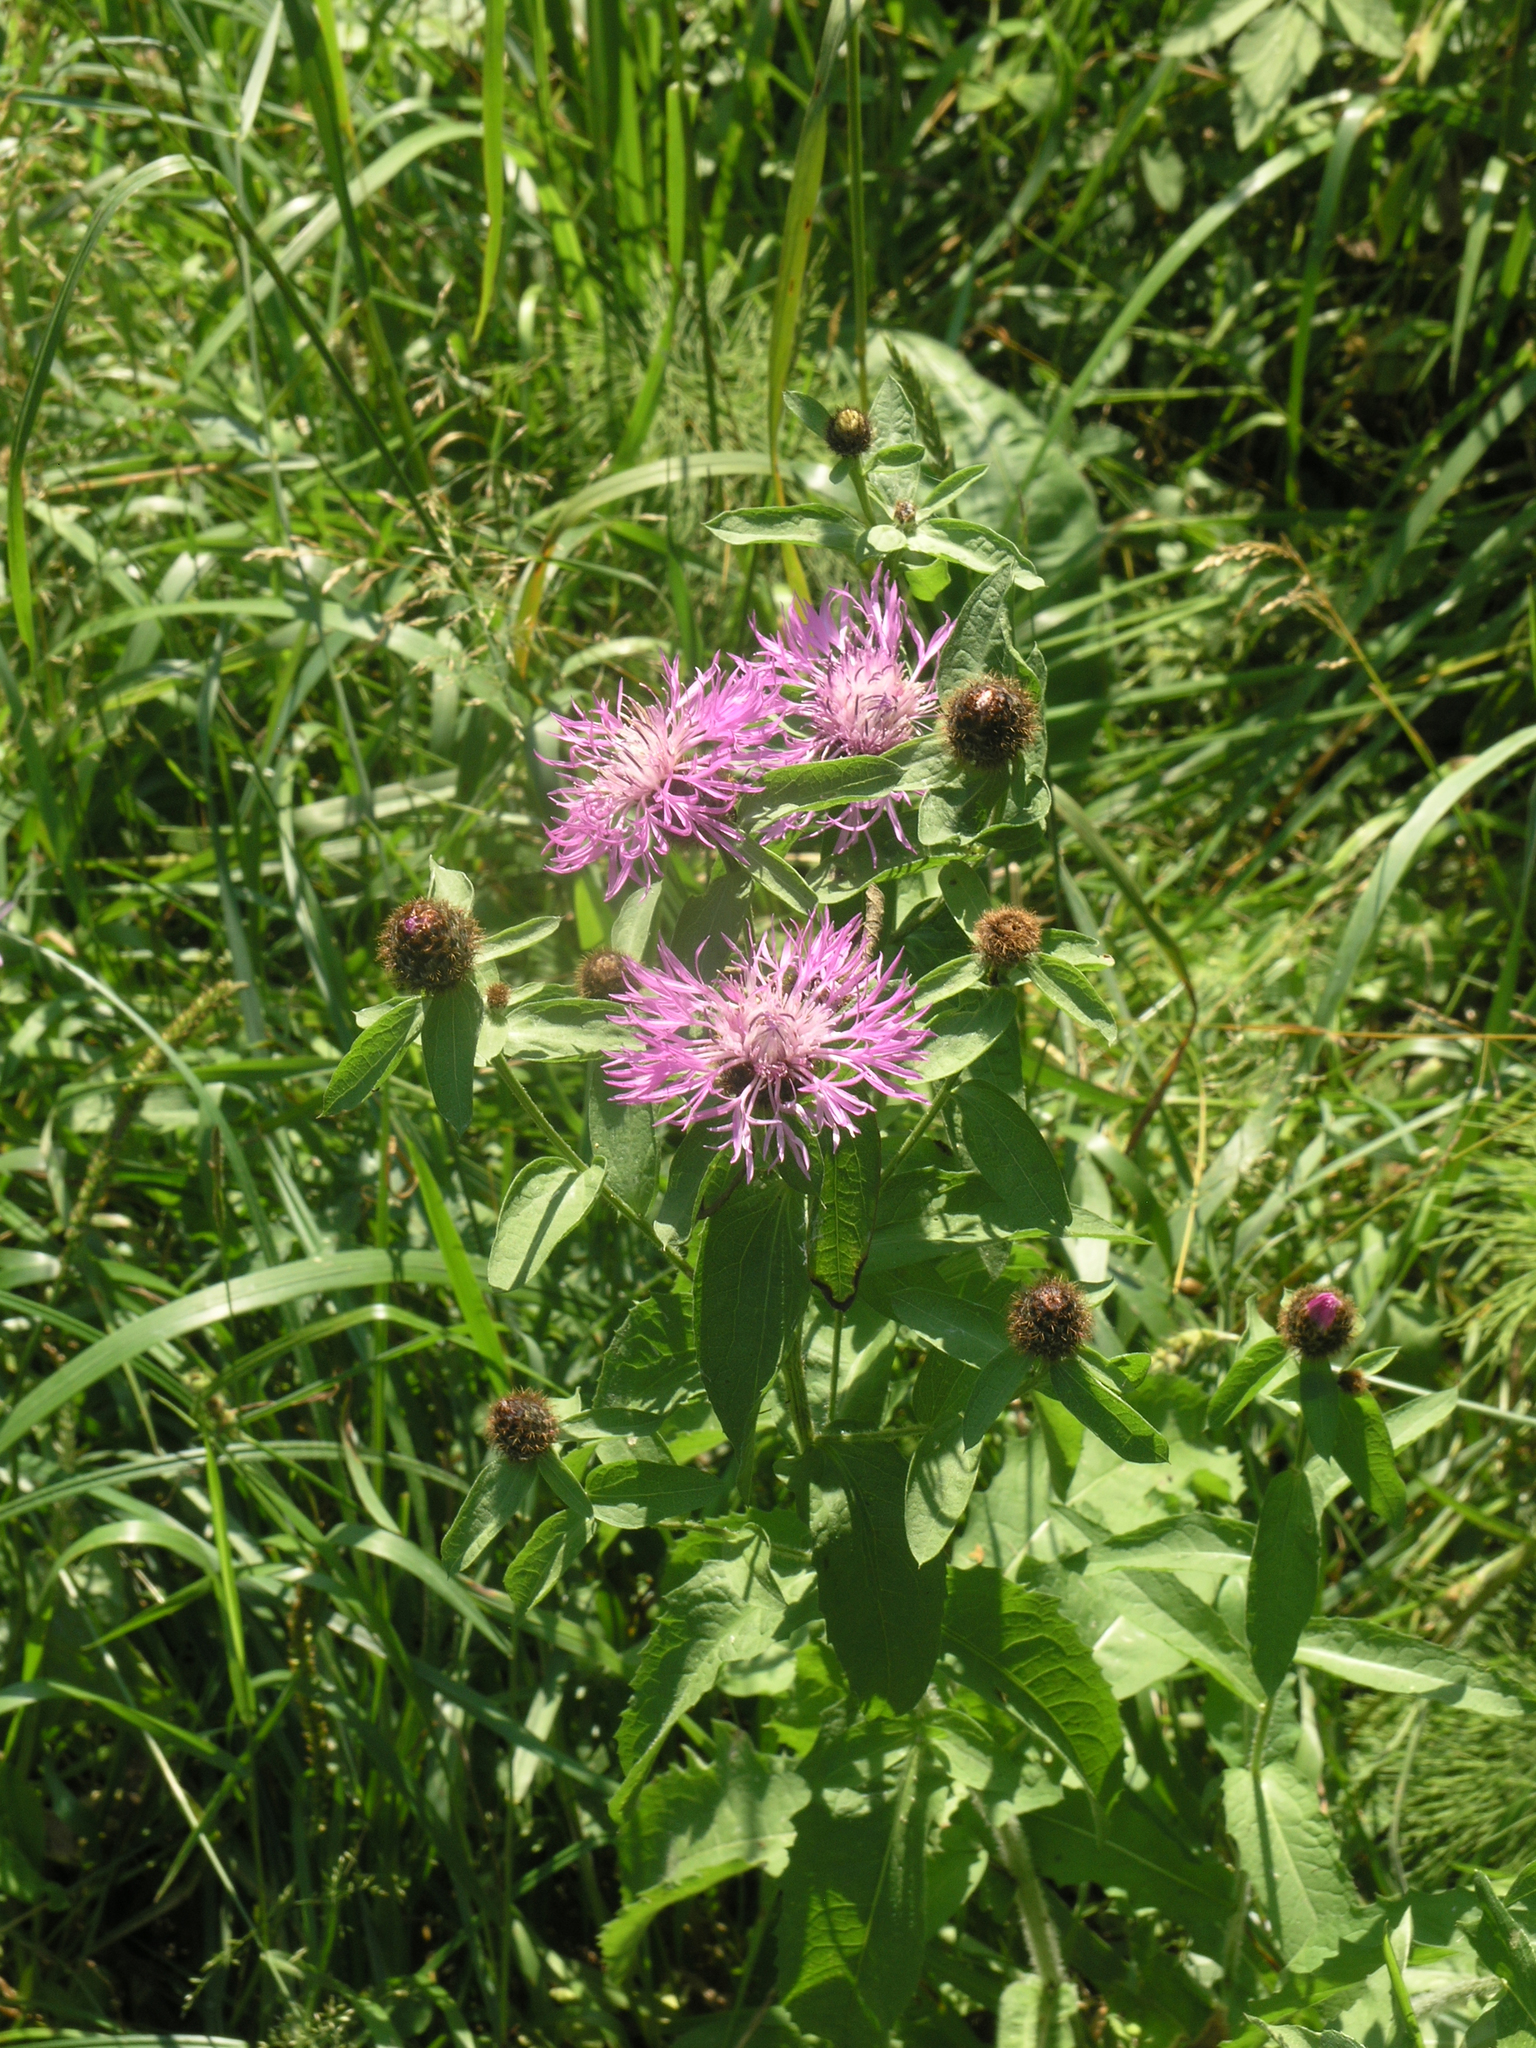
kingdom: Plantae
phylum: Tracheophyta
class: Magnoliopsida
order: Asterales
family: Asteraceae
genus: Centaurea
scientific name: Centaurea pseudophrygia
